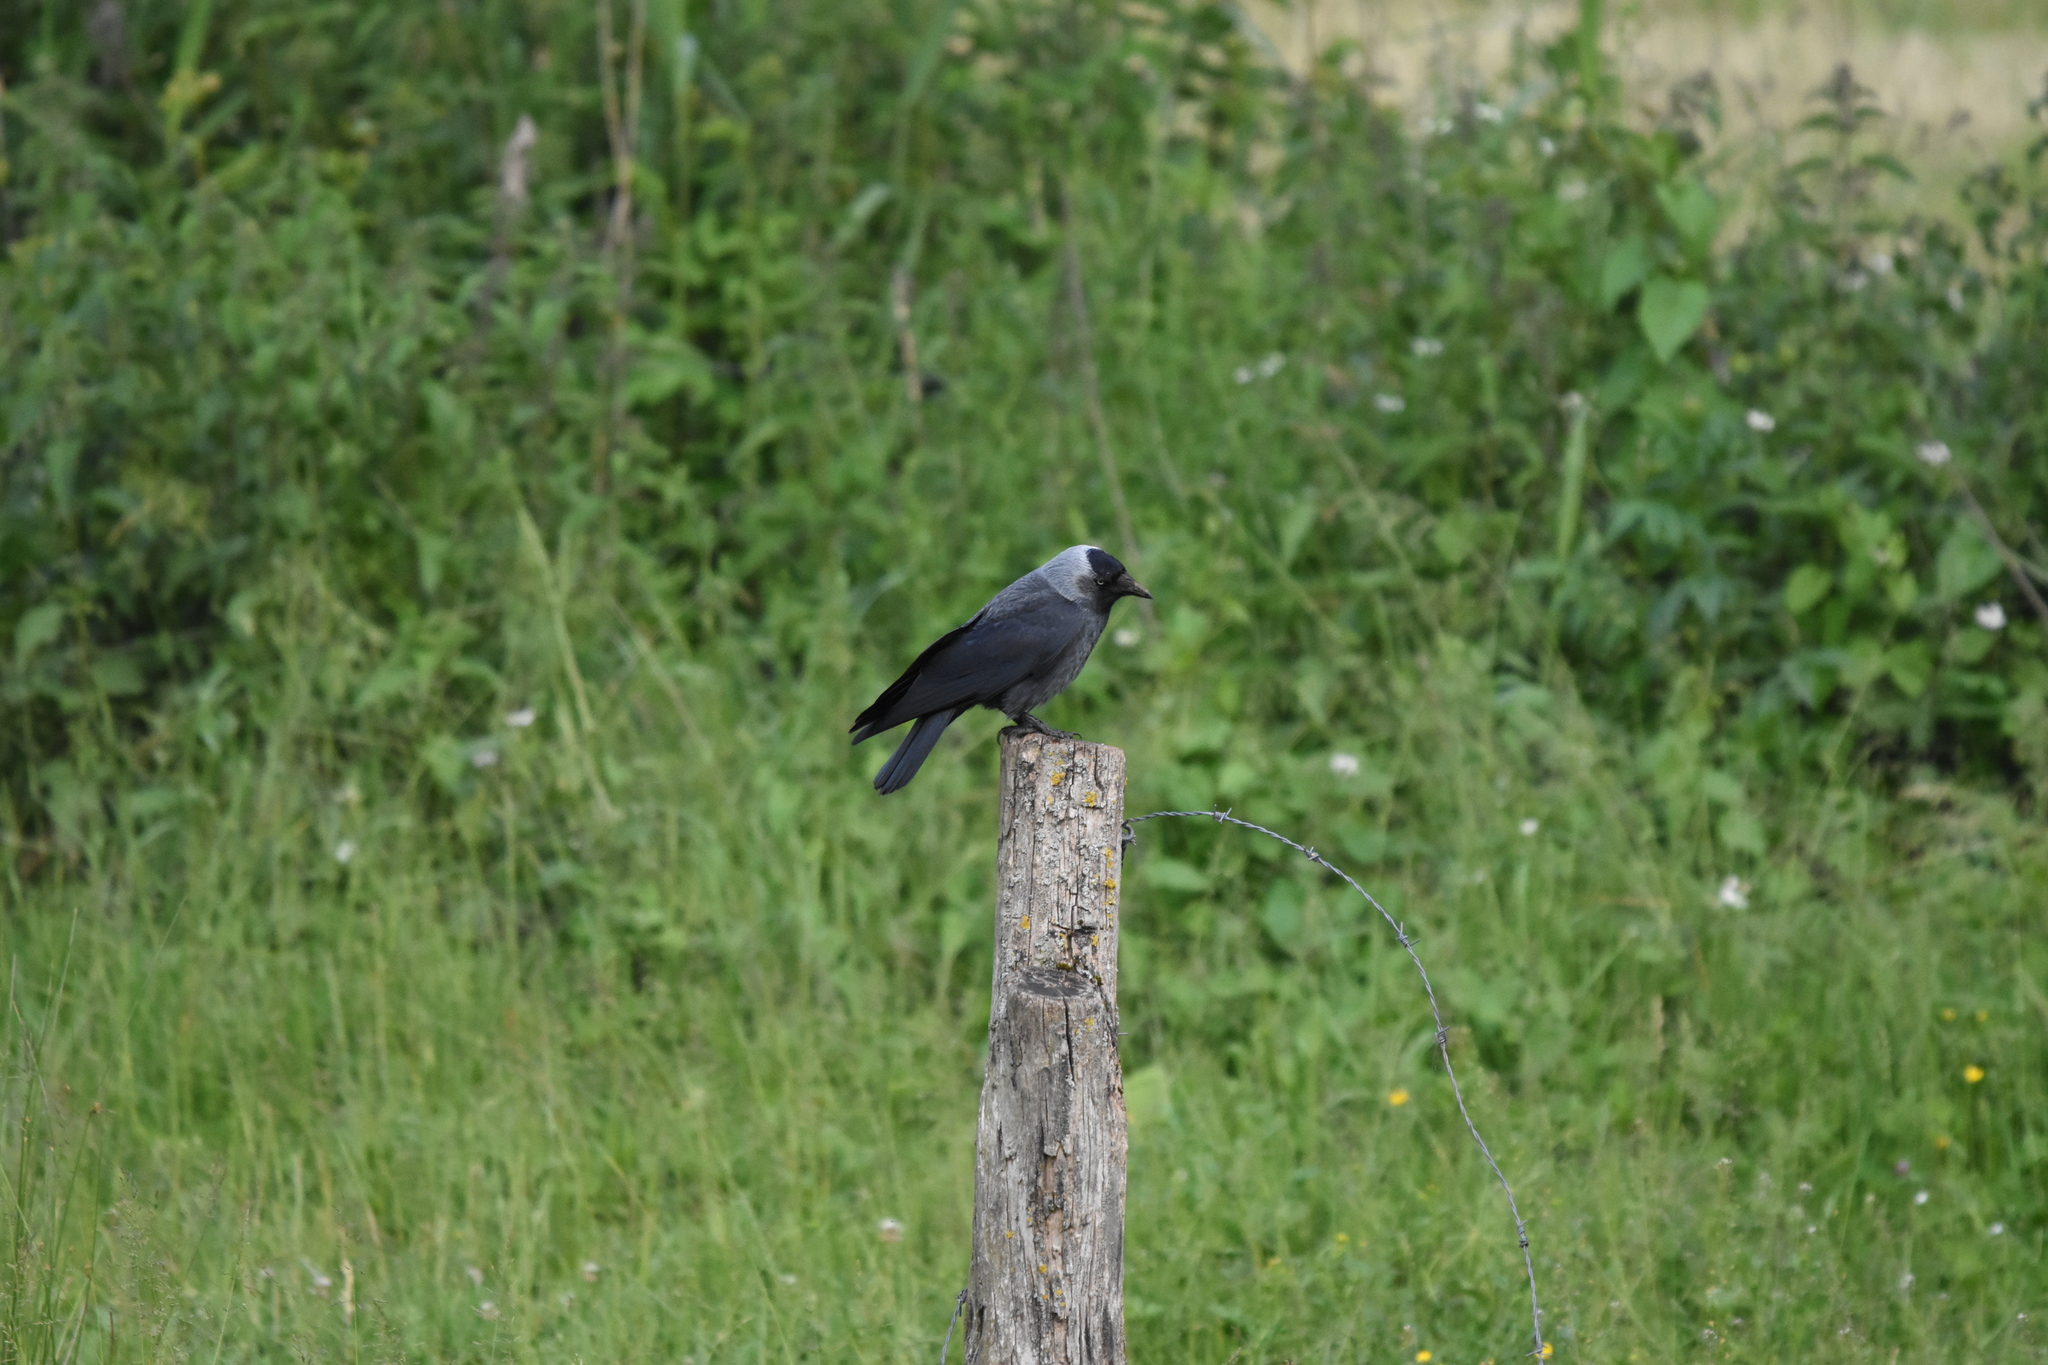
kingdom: Animalia
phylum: Chordata
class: Aves
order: Passeriformes
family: Corvidae
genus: Coloeus
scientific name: Coloeus monedula
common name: Western jackdaw
